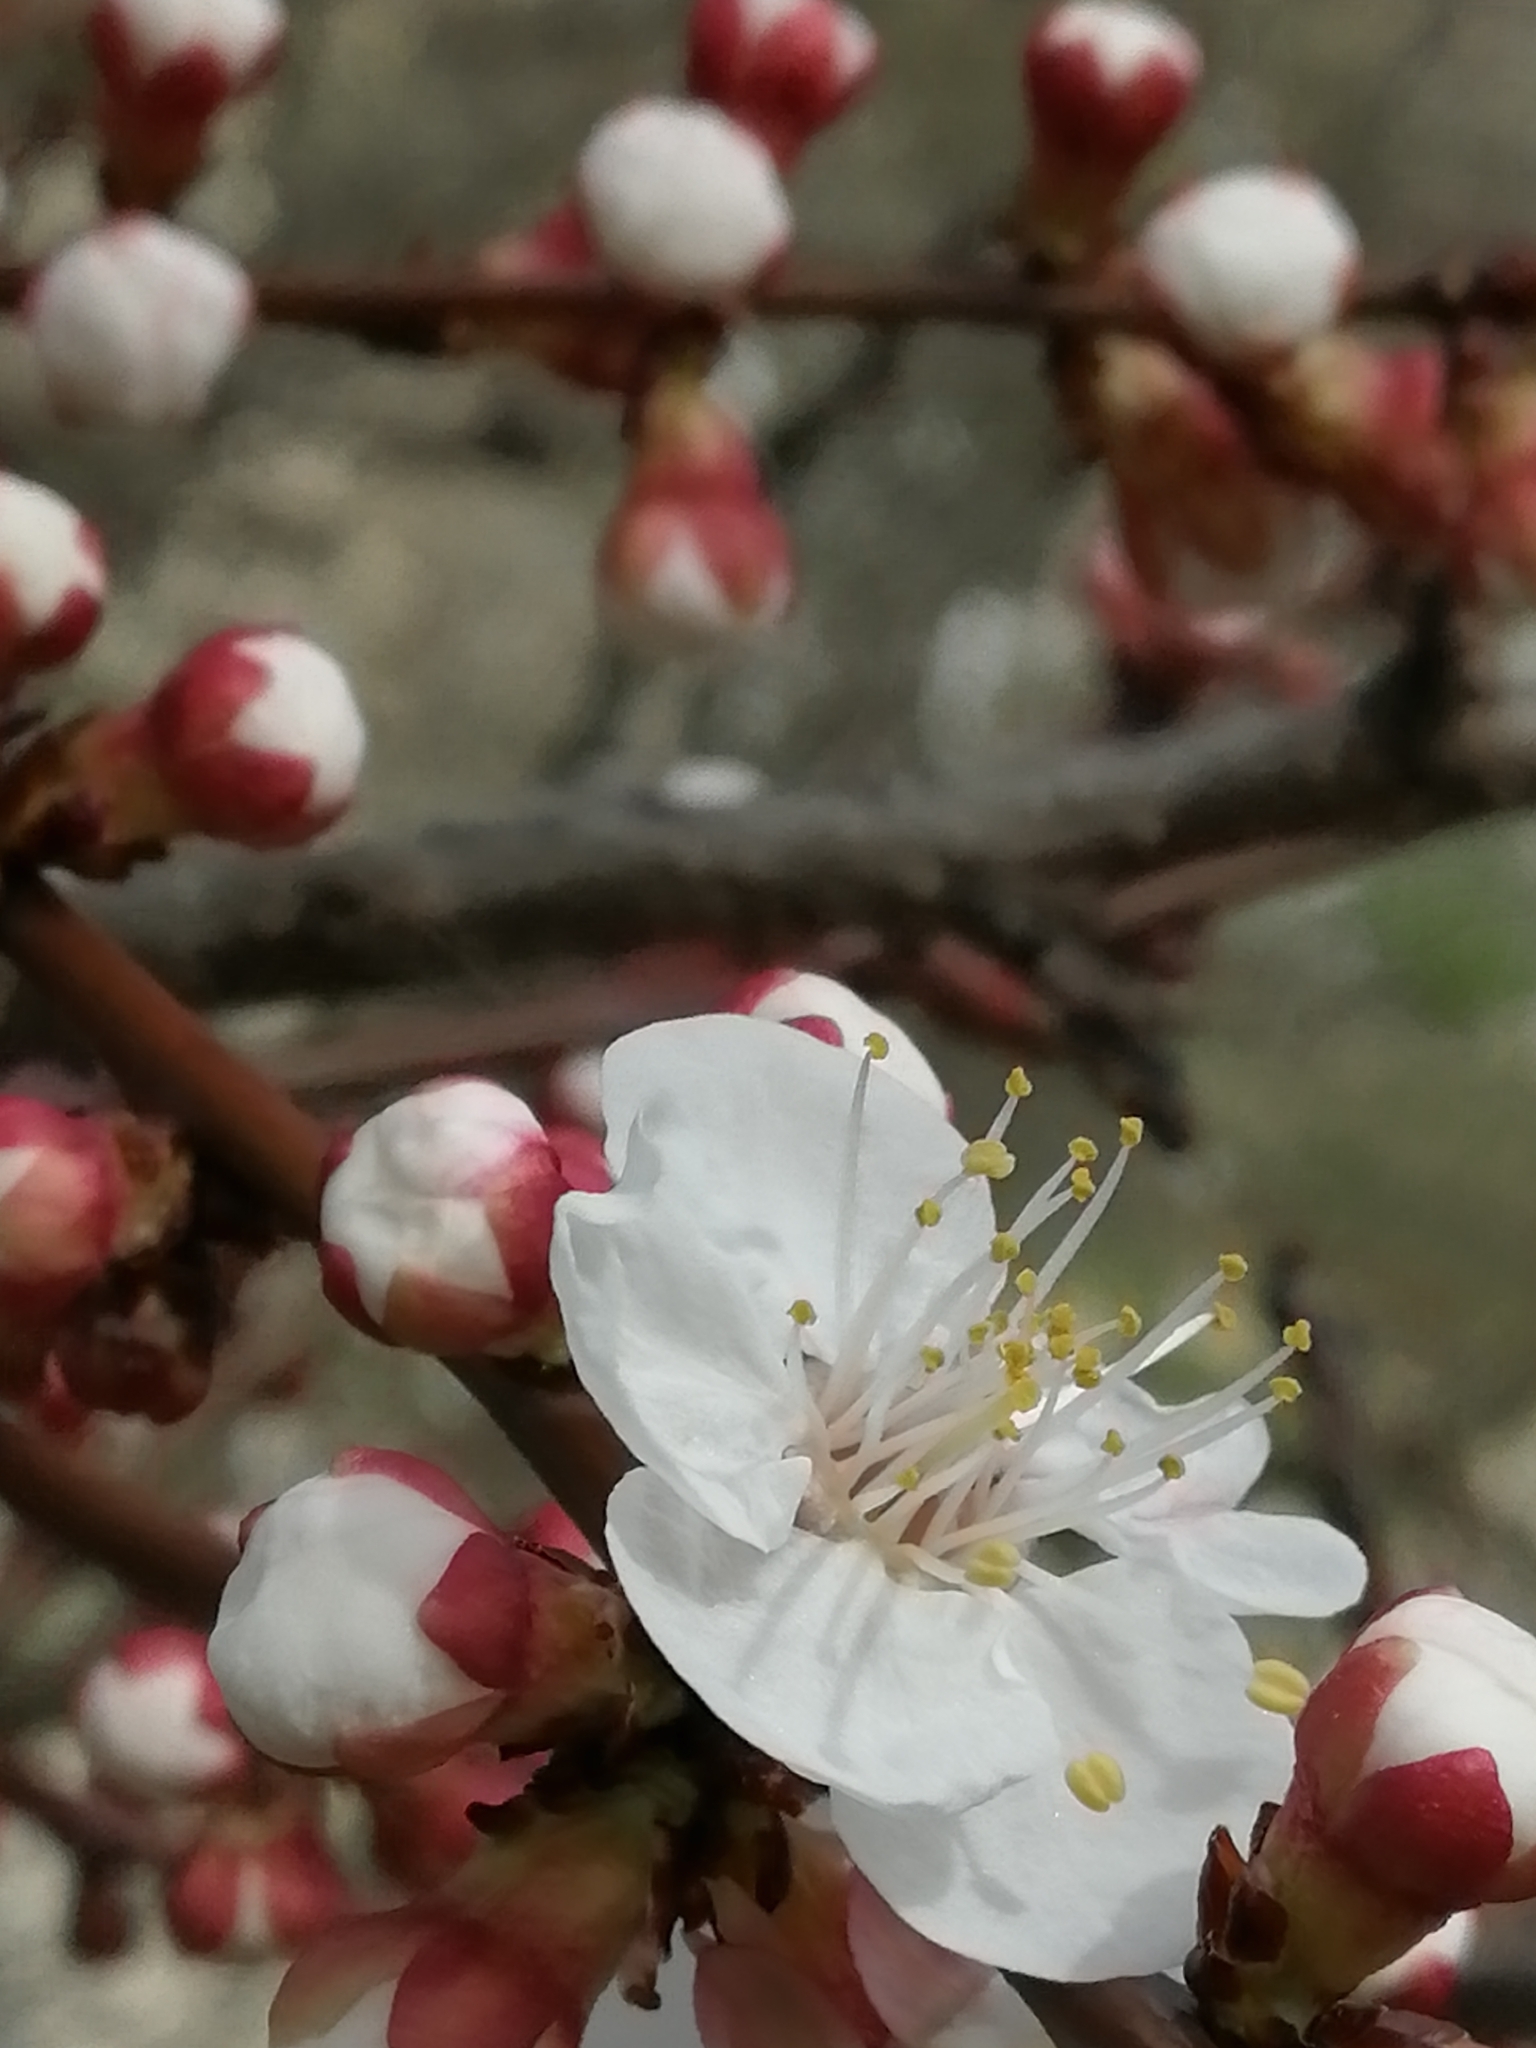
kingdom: Plantae
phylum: Tracheophyta
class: Magnoliopsida
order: Rosales
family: Rosaceae
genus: Prunus
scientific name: Prunus armeniaca
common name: Apricot
